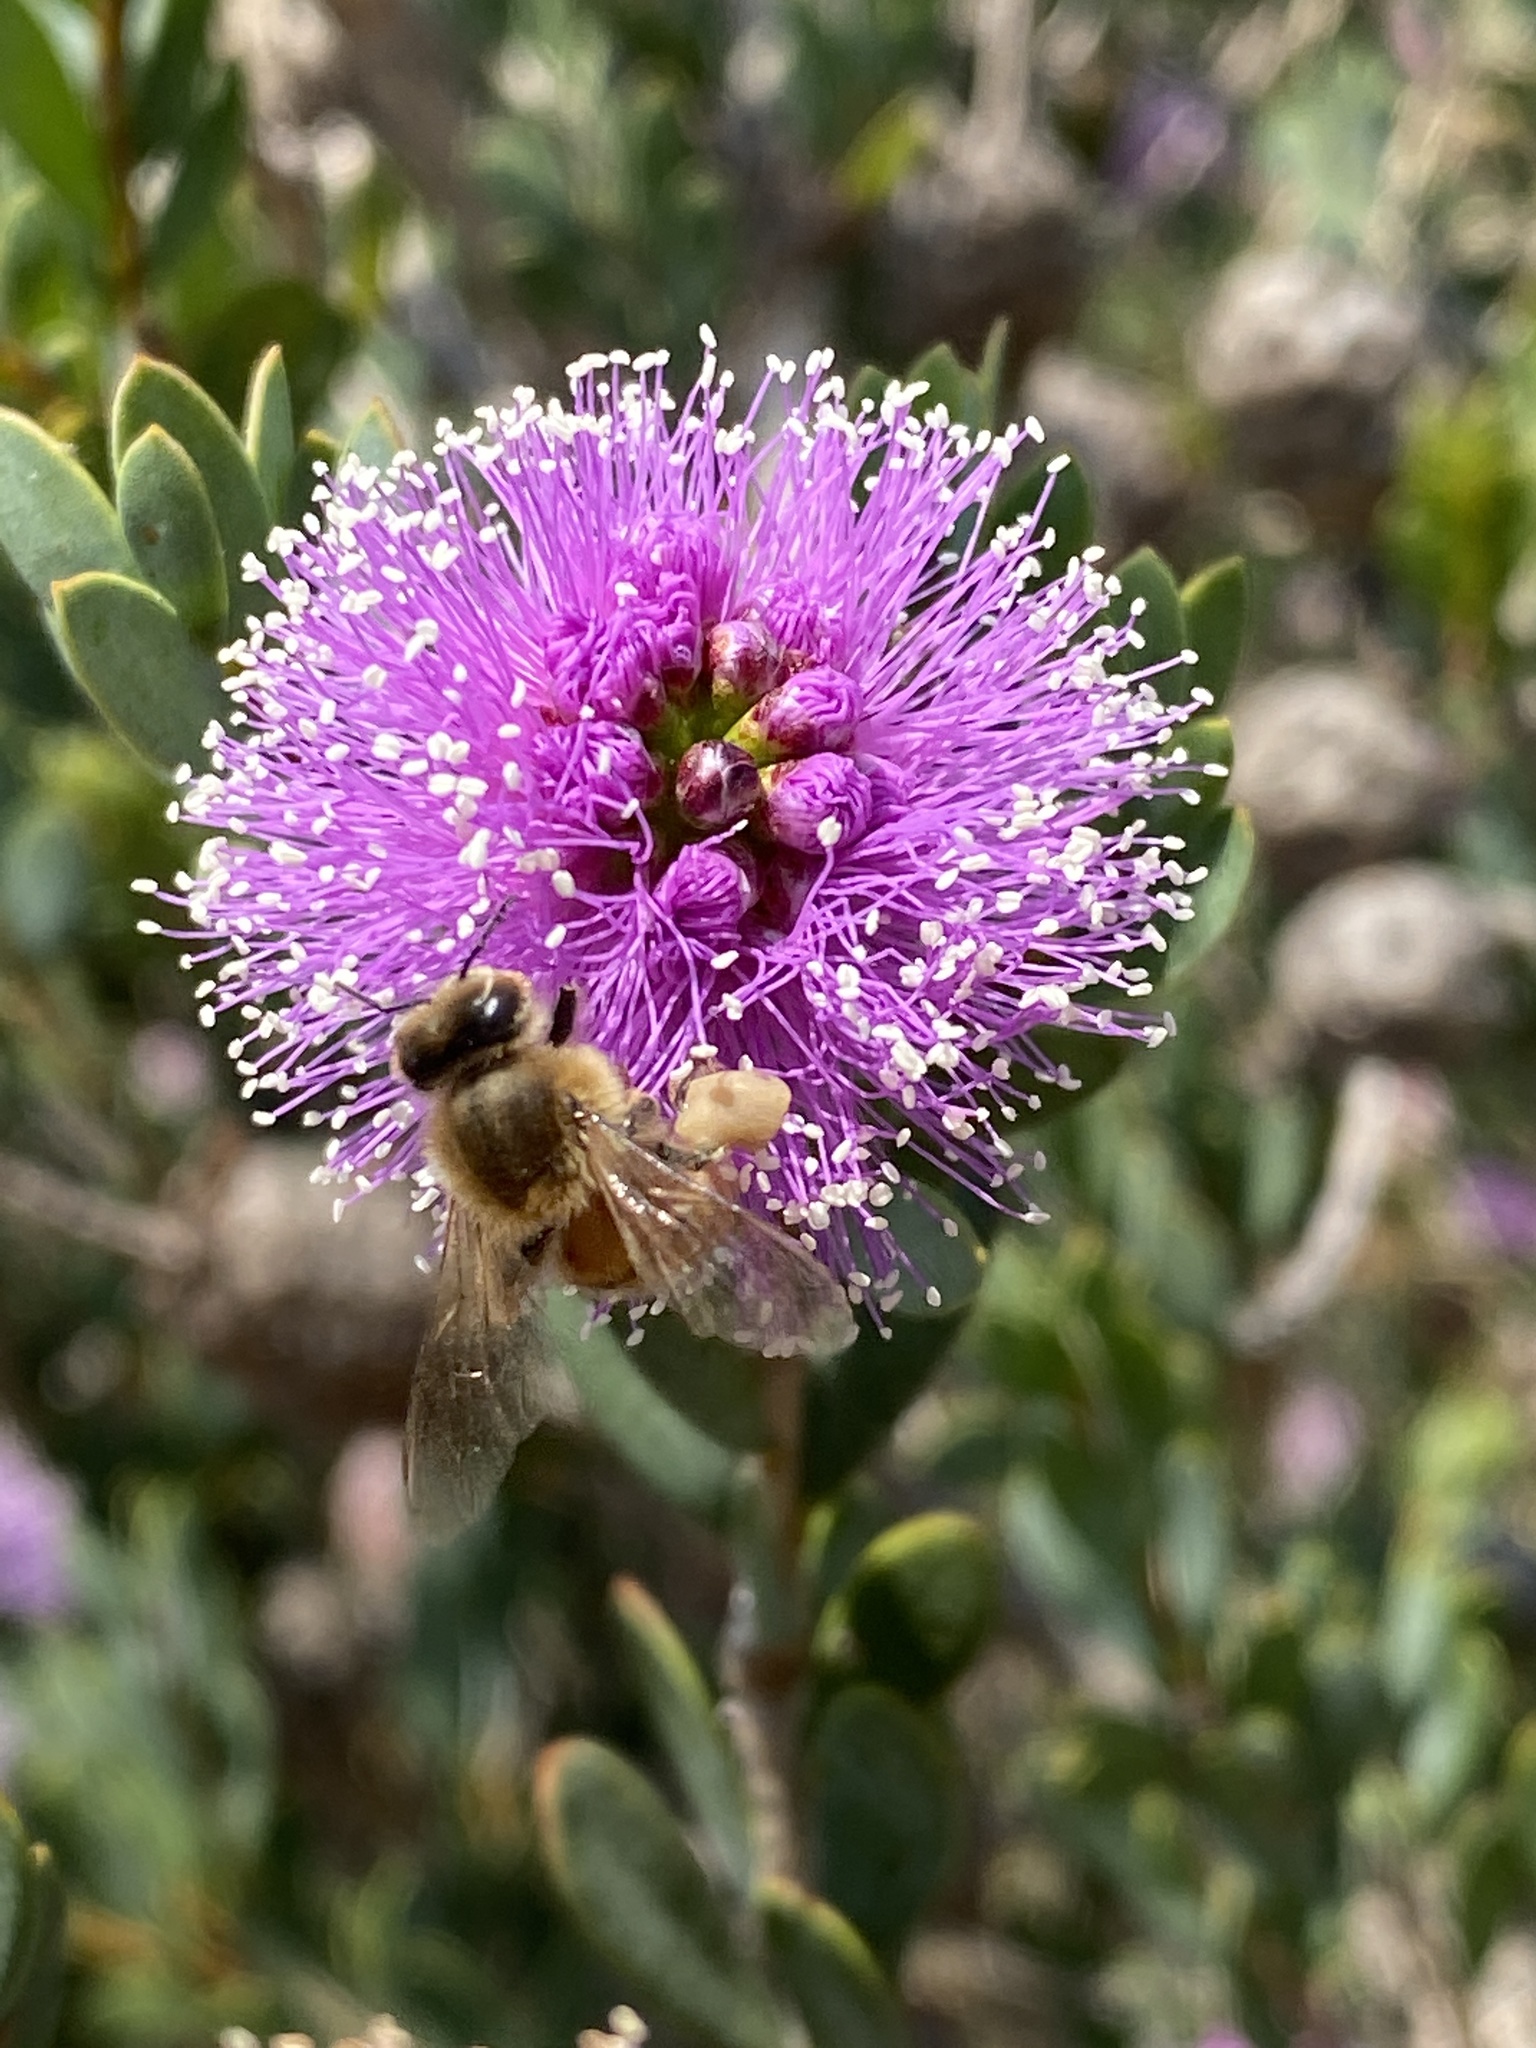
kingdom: Animalia
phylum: Arthropoda
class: Insecta
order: Hymenoptera
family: Apidae
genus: Apis
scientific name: Apis mellifera
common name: Honey bee
